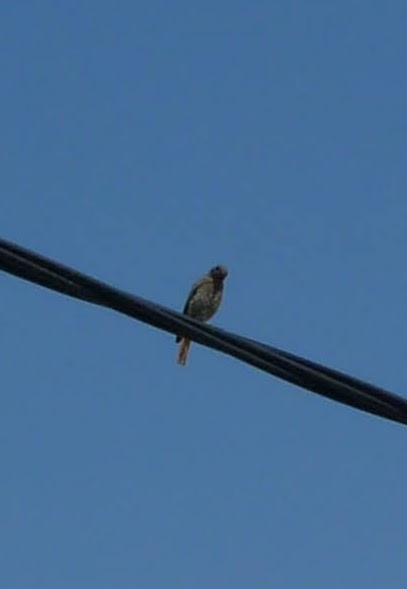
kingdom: Animalia
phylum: Chordata
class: Aves
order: Passeriformes
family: Muscicapidae
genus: Phoenicurus
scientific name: Phoenicurus ochruros
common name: Black redstart
